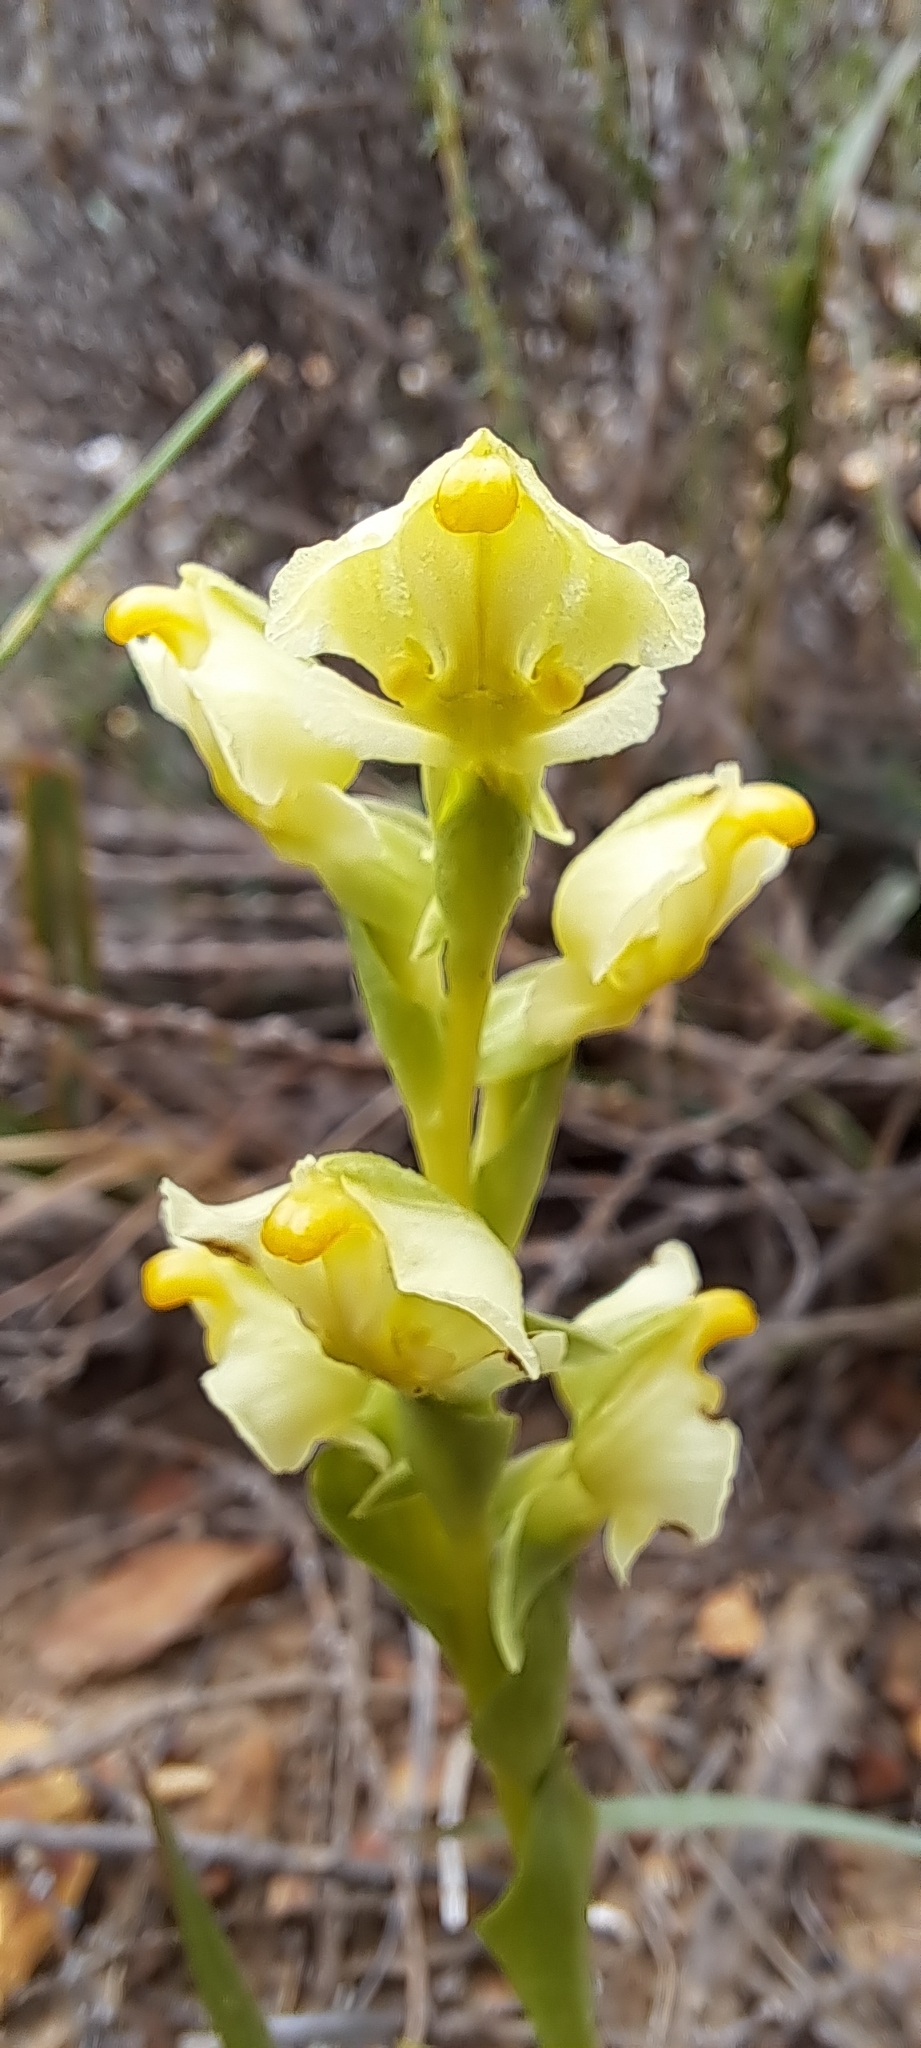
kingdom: Plantae
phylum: Tracheophyta
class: Liliopsida
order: Asparagales
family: Orchidaceae
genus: Pterygodium
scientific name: Pterygodium alatum
